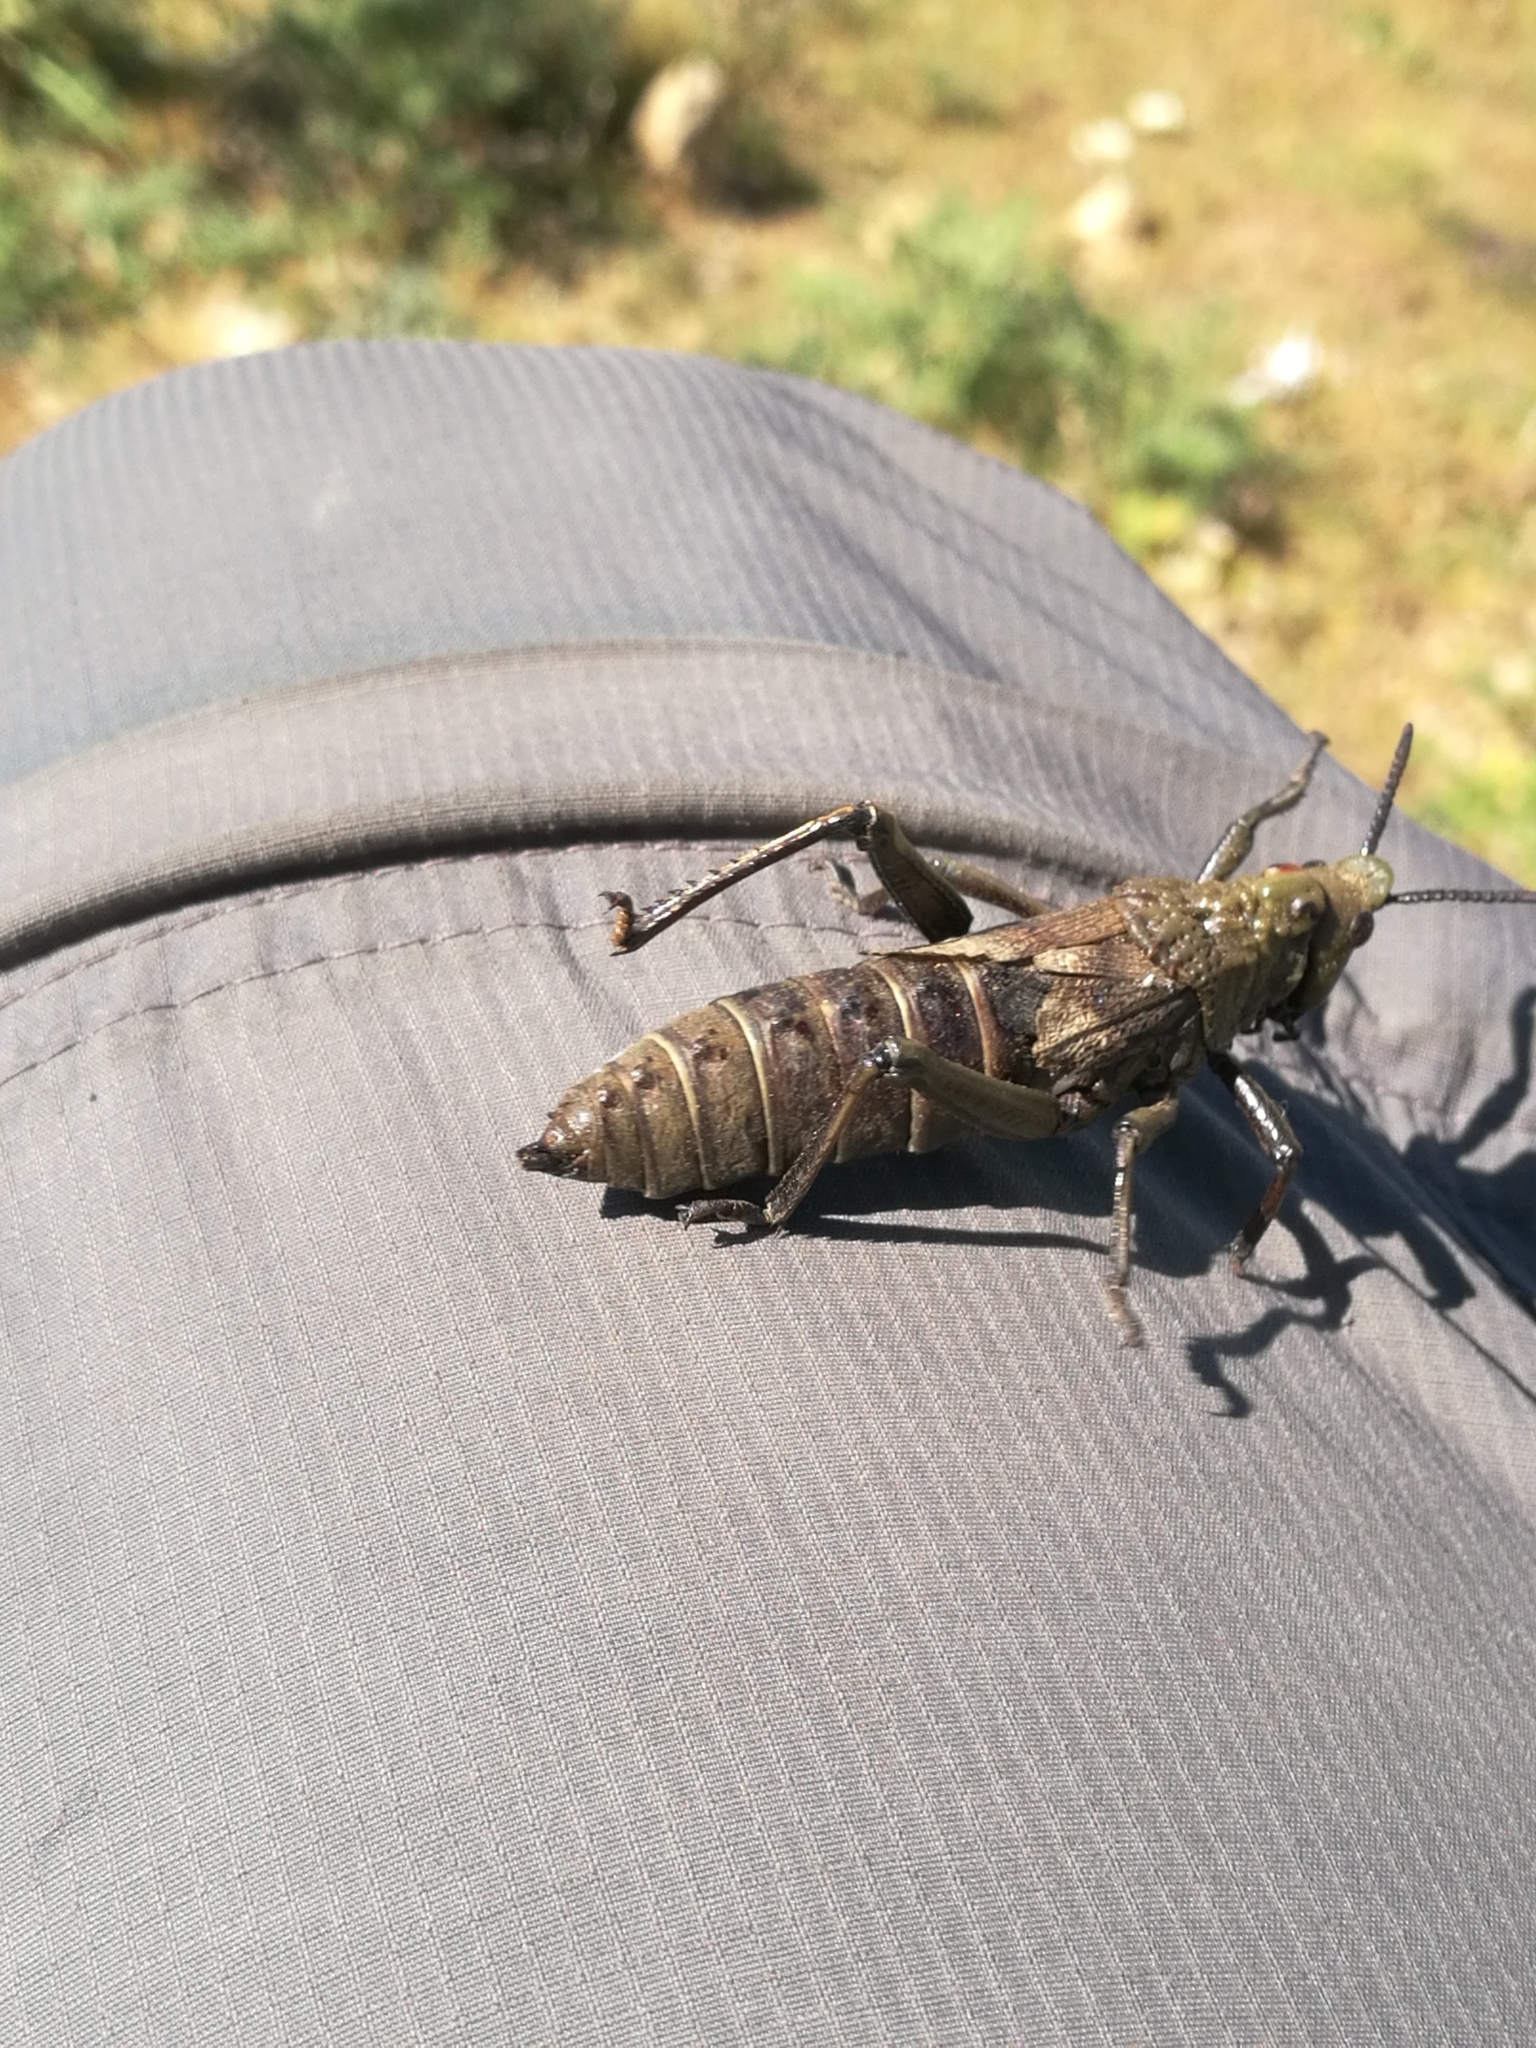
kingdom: Animalia
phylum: Arthropoda
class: Insecta
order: Orthoptera
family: Pyrgomorphidae
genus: Dictyophorus
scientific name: Dictyophorus griseus
